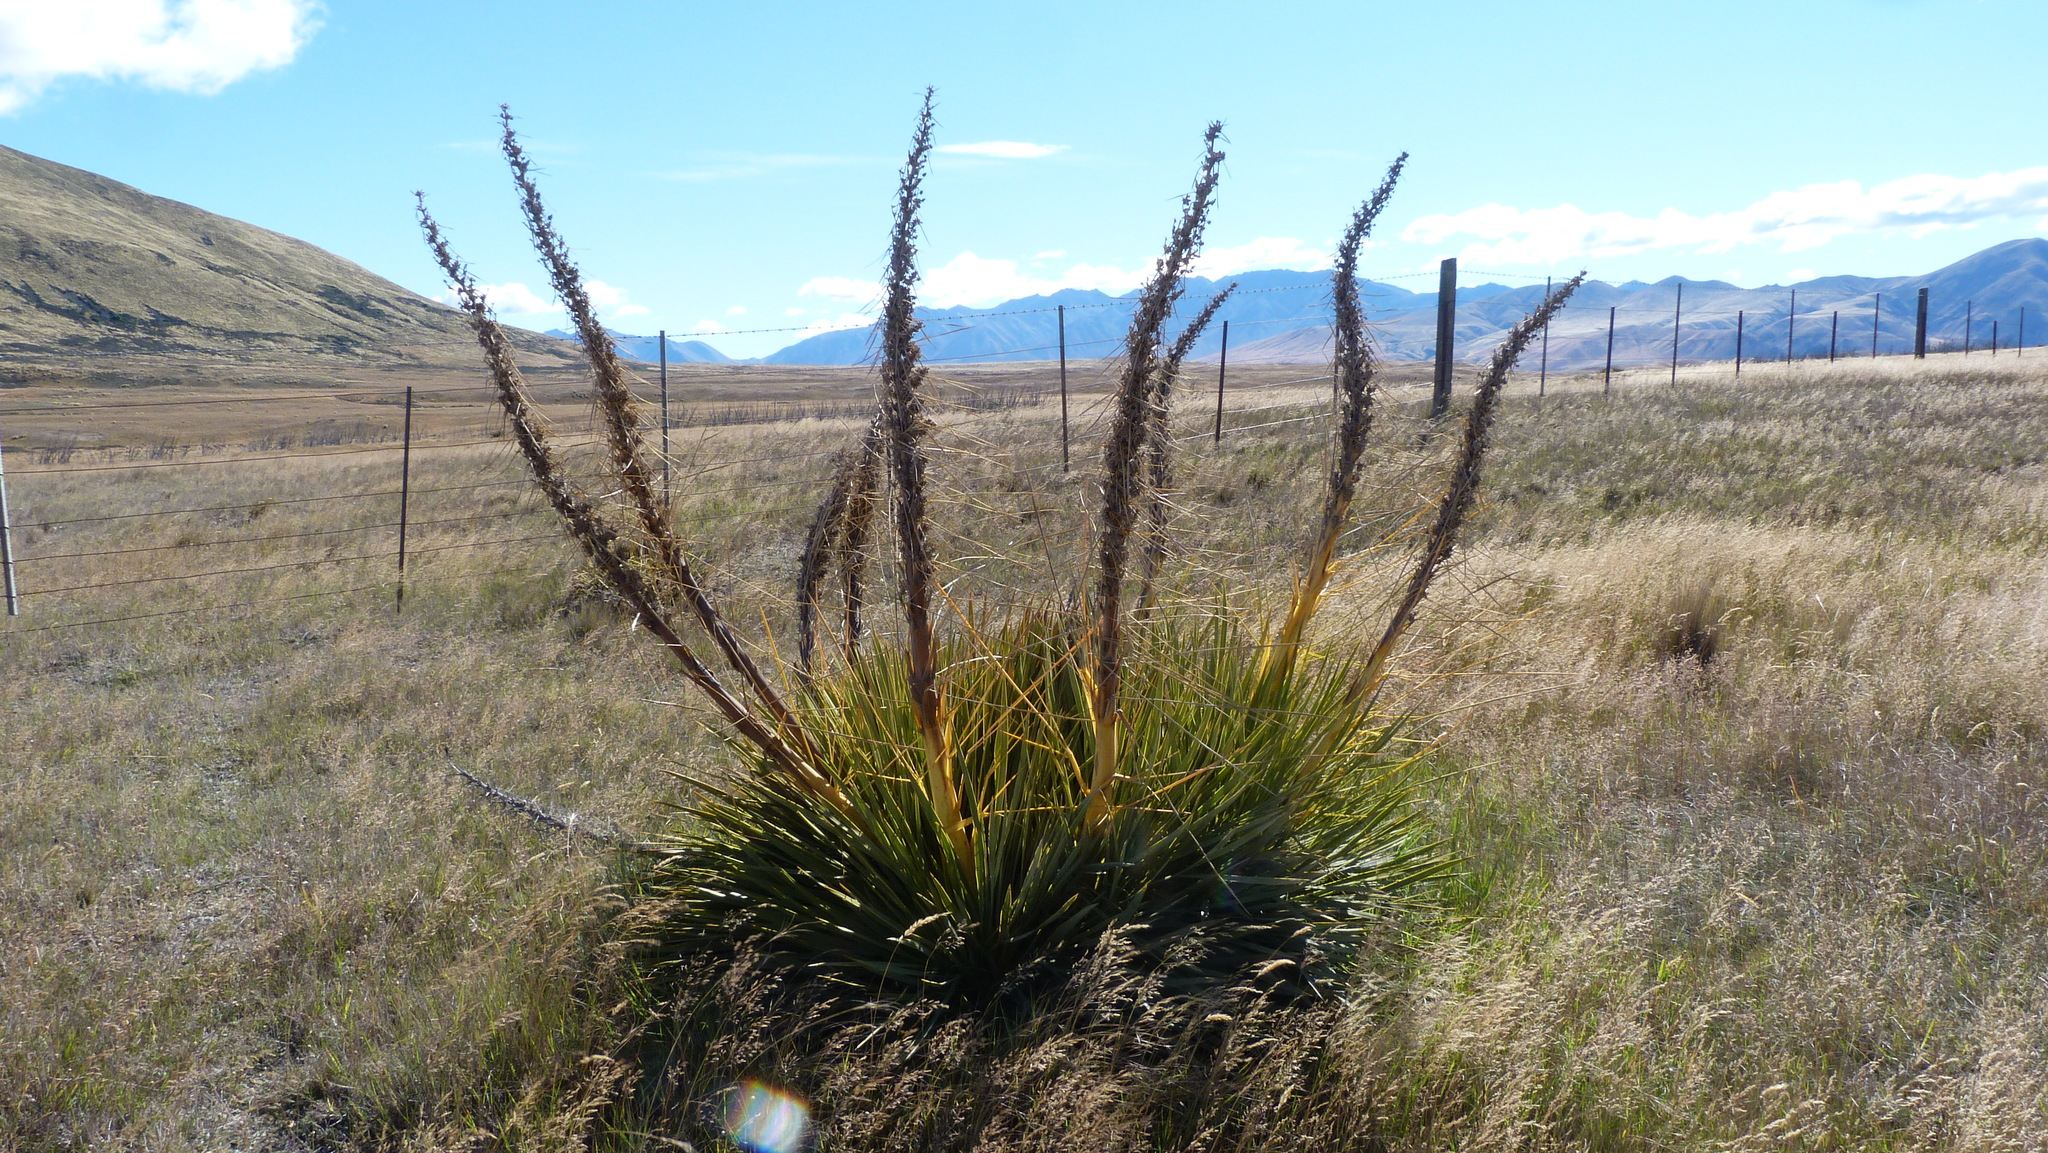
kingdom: Plantae
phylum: Tracheophyta
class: Magnoliopsida
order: Apiales
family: Apiaceae
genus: Aciphylla
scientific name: Aciphylla aurea
